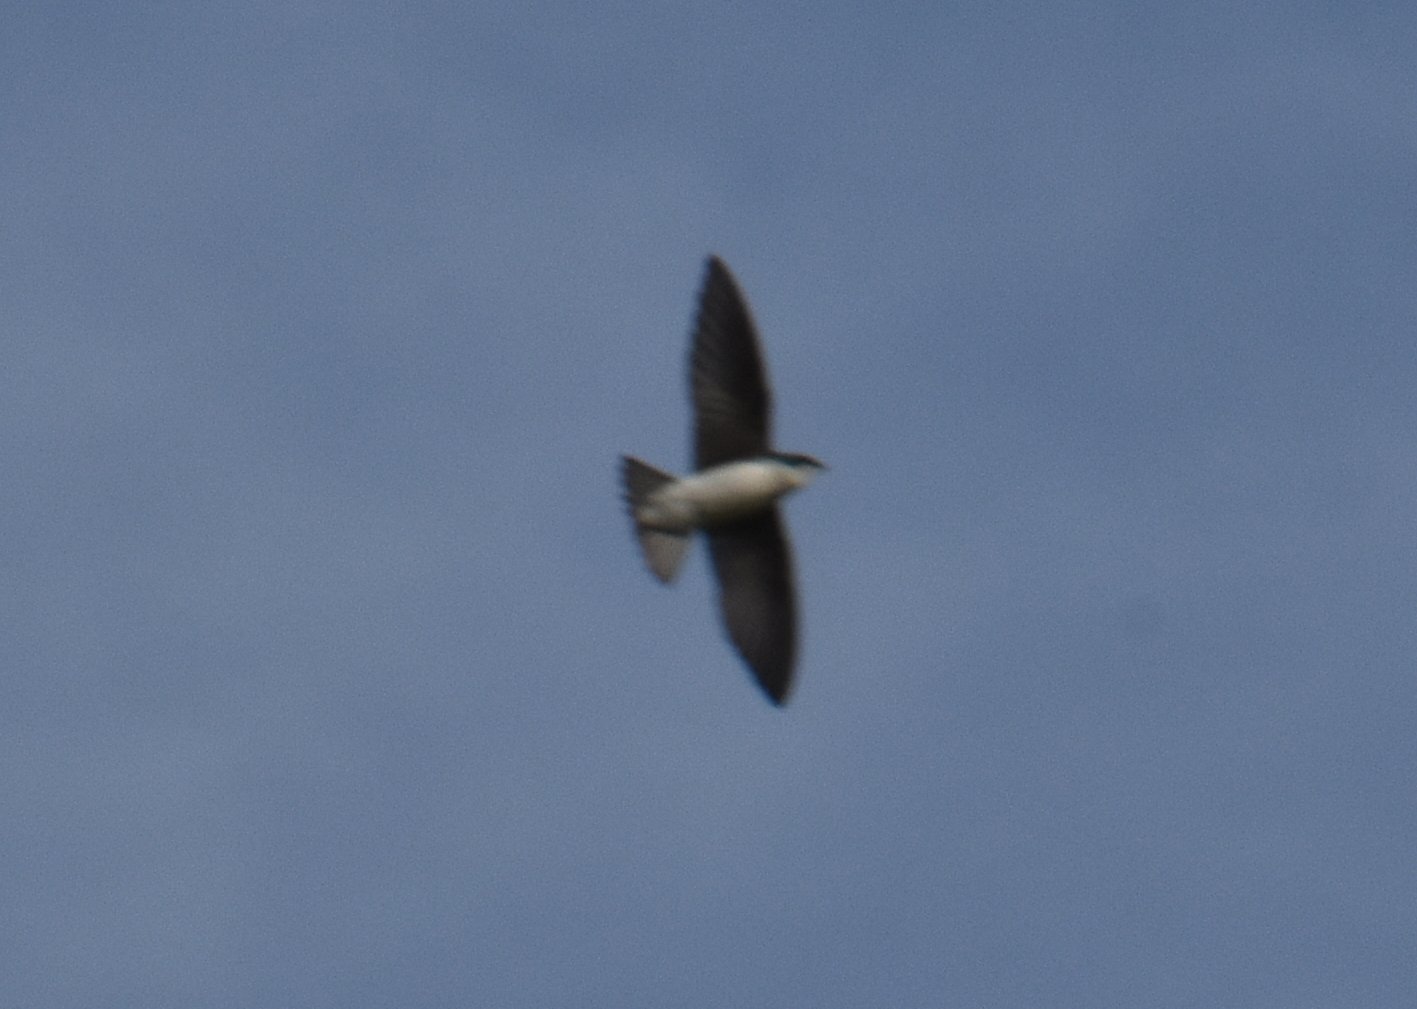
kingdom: Animalia
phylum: Chordata
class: Aves
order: Passeriformes
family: Hirundinidae
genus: Tachycineta
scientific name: Tachycineta bicolor
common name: Tree swallow
